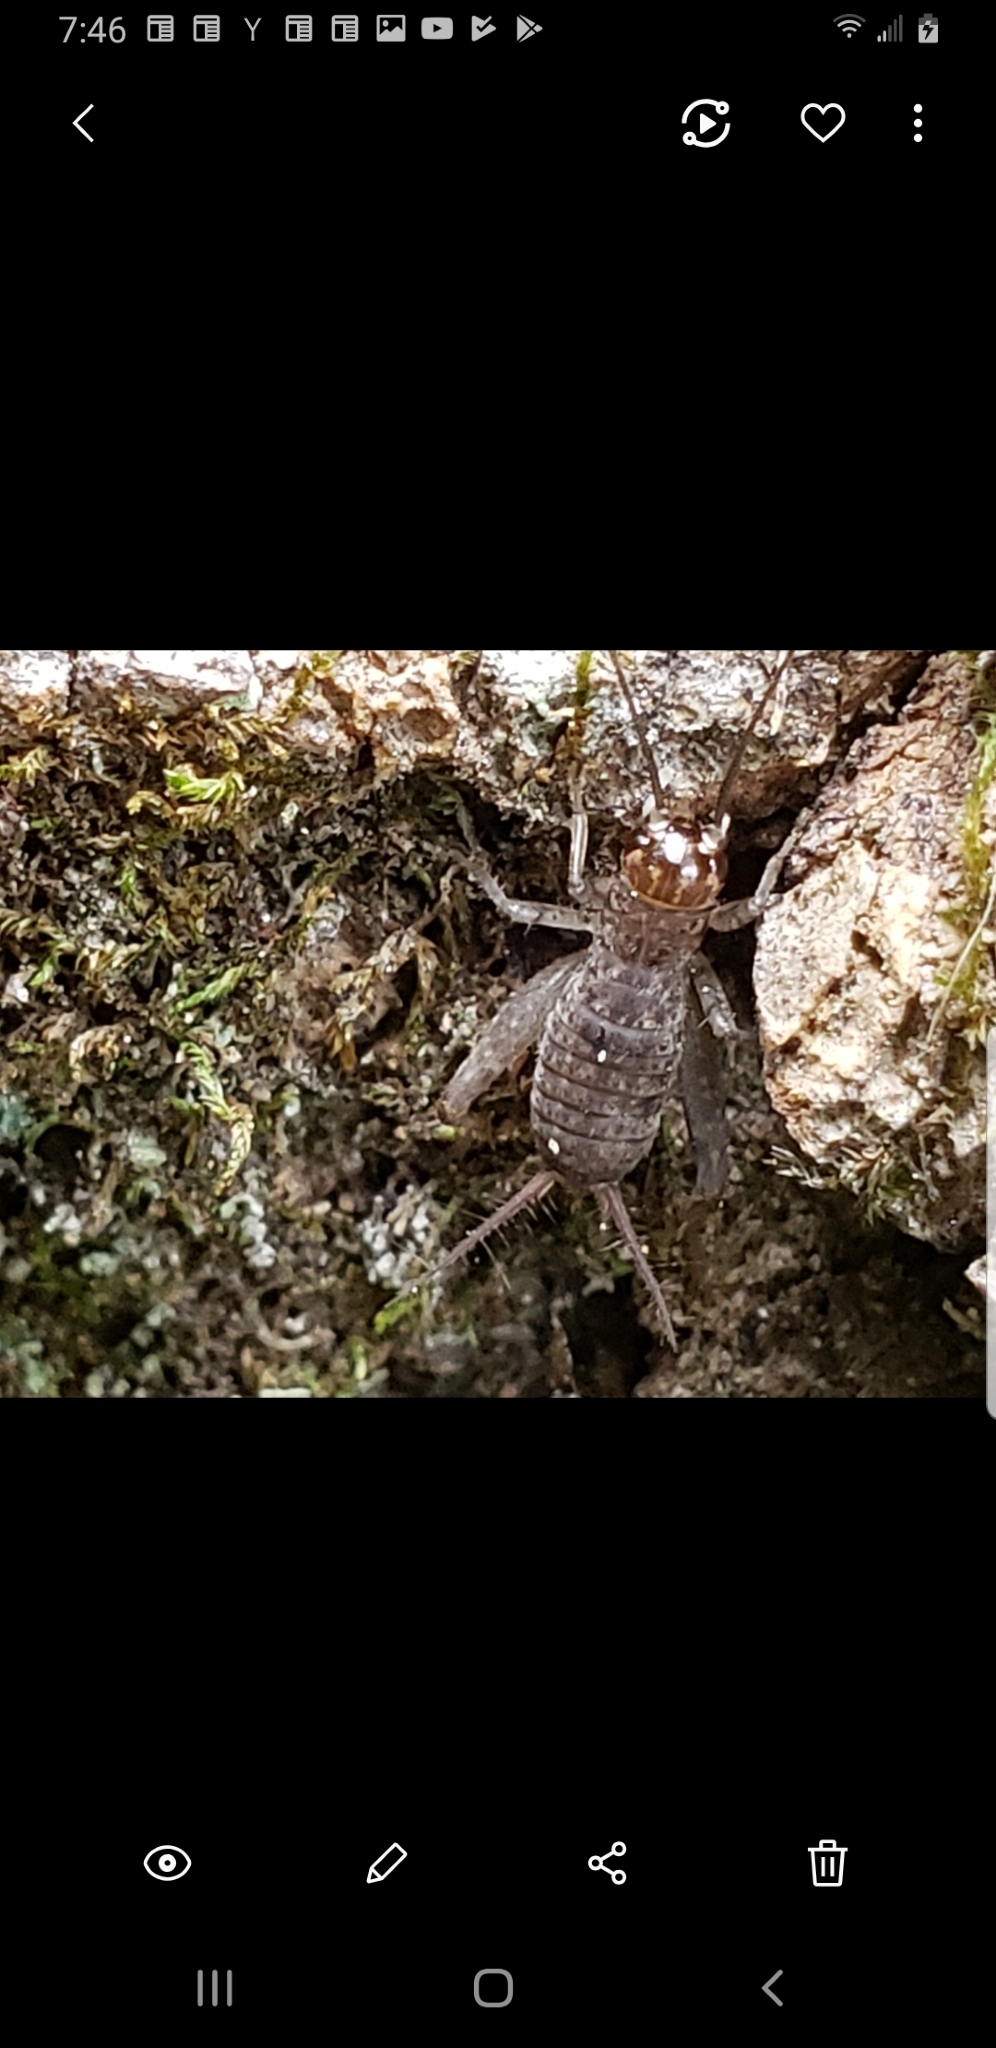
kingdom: Animalia
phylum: Arthropoda
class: Insecta
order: Orthoptera
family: Gryllidae
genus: Velarifictorus
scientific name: Velarifictorus micado
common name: Japanese burrowing cricket
